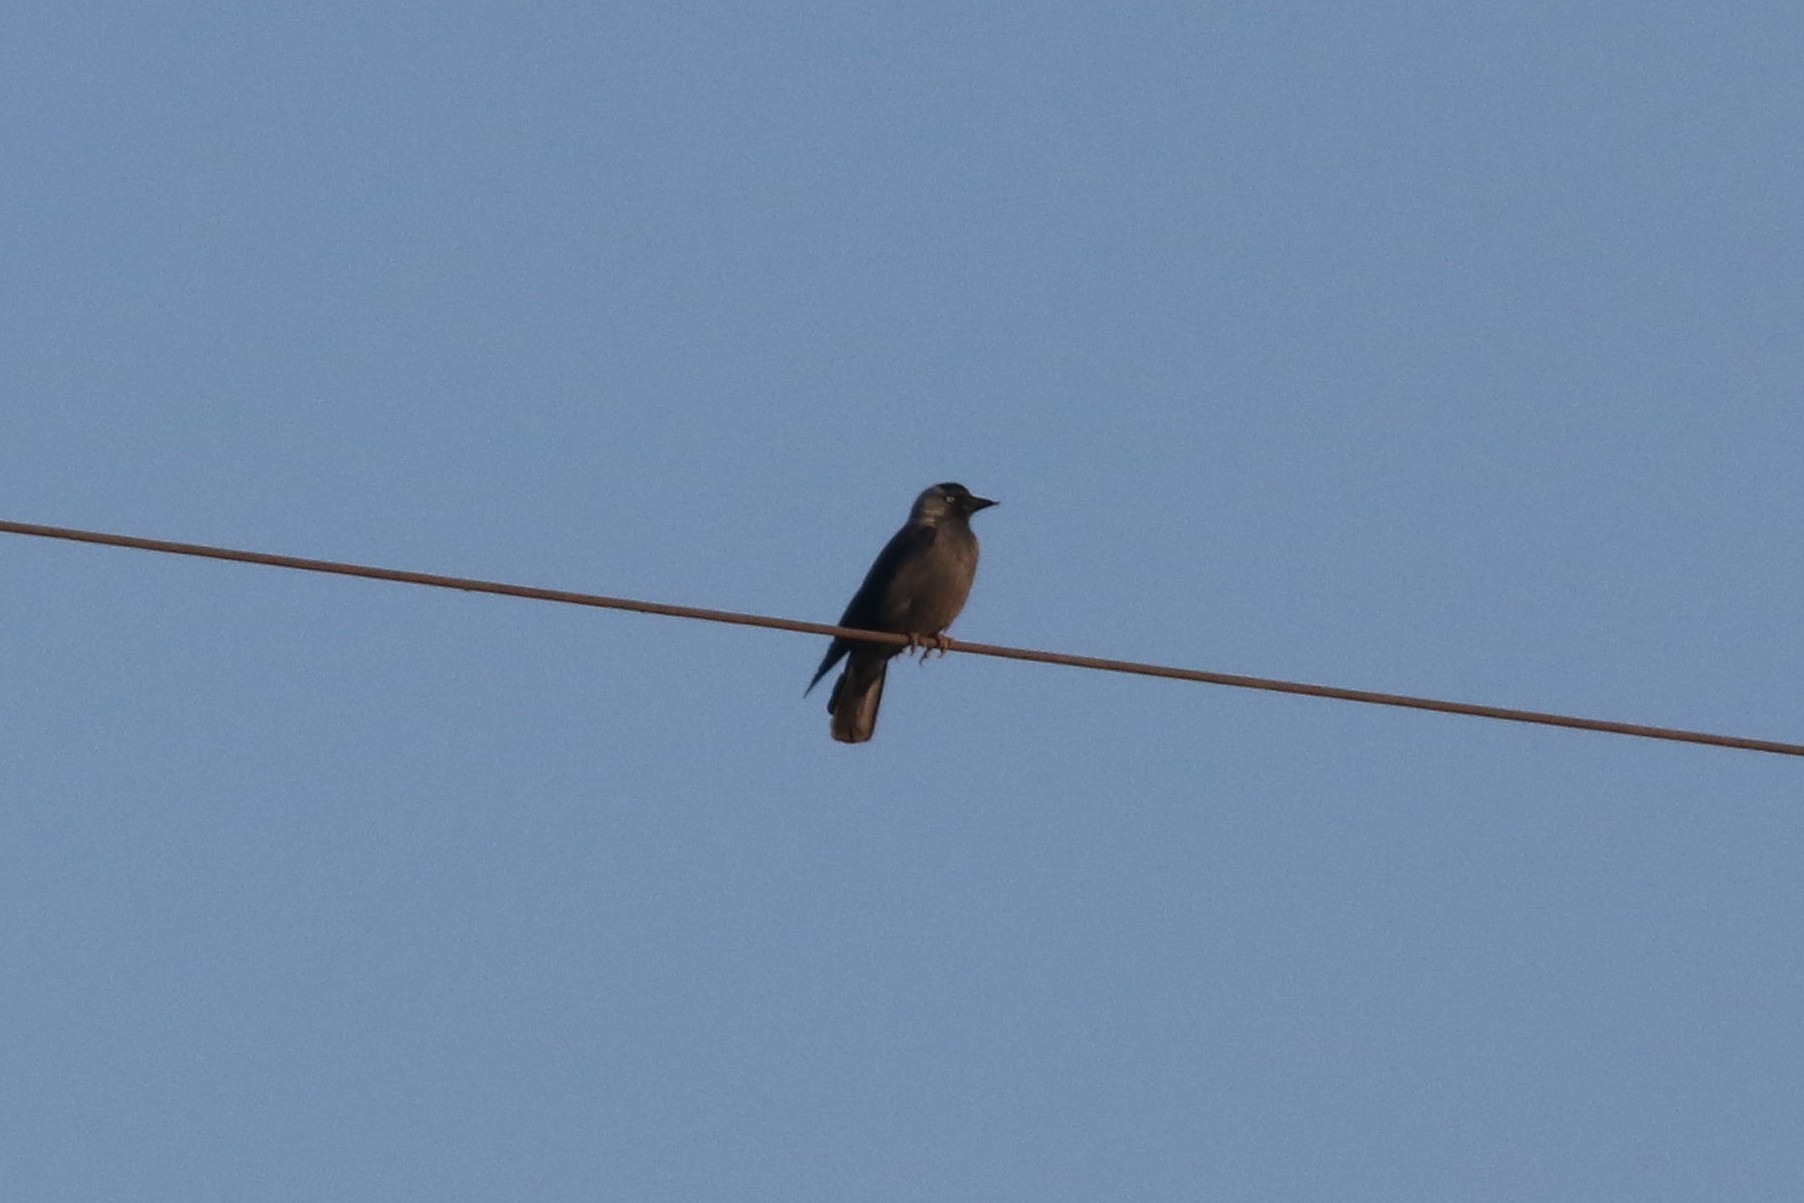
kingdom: Animalia
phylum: Chordata
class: Aves
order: Passeriformes
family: Corvidae
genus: Coloeus
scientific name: Coloeus monedula
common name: Western jackdaw
